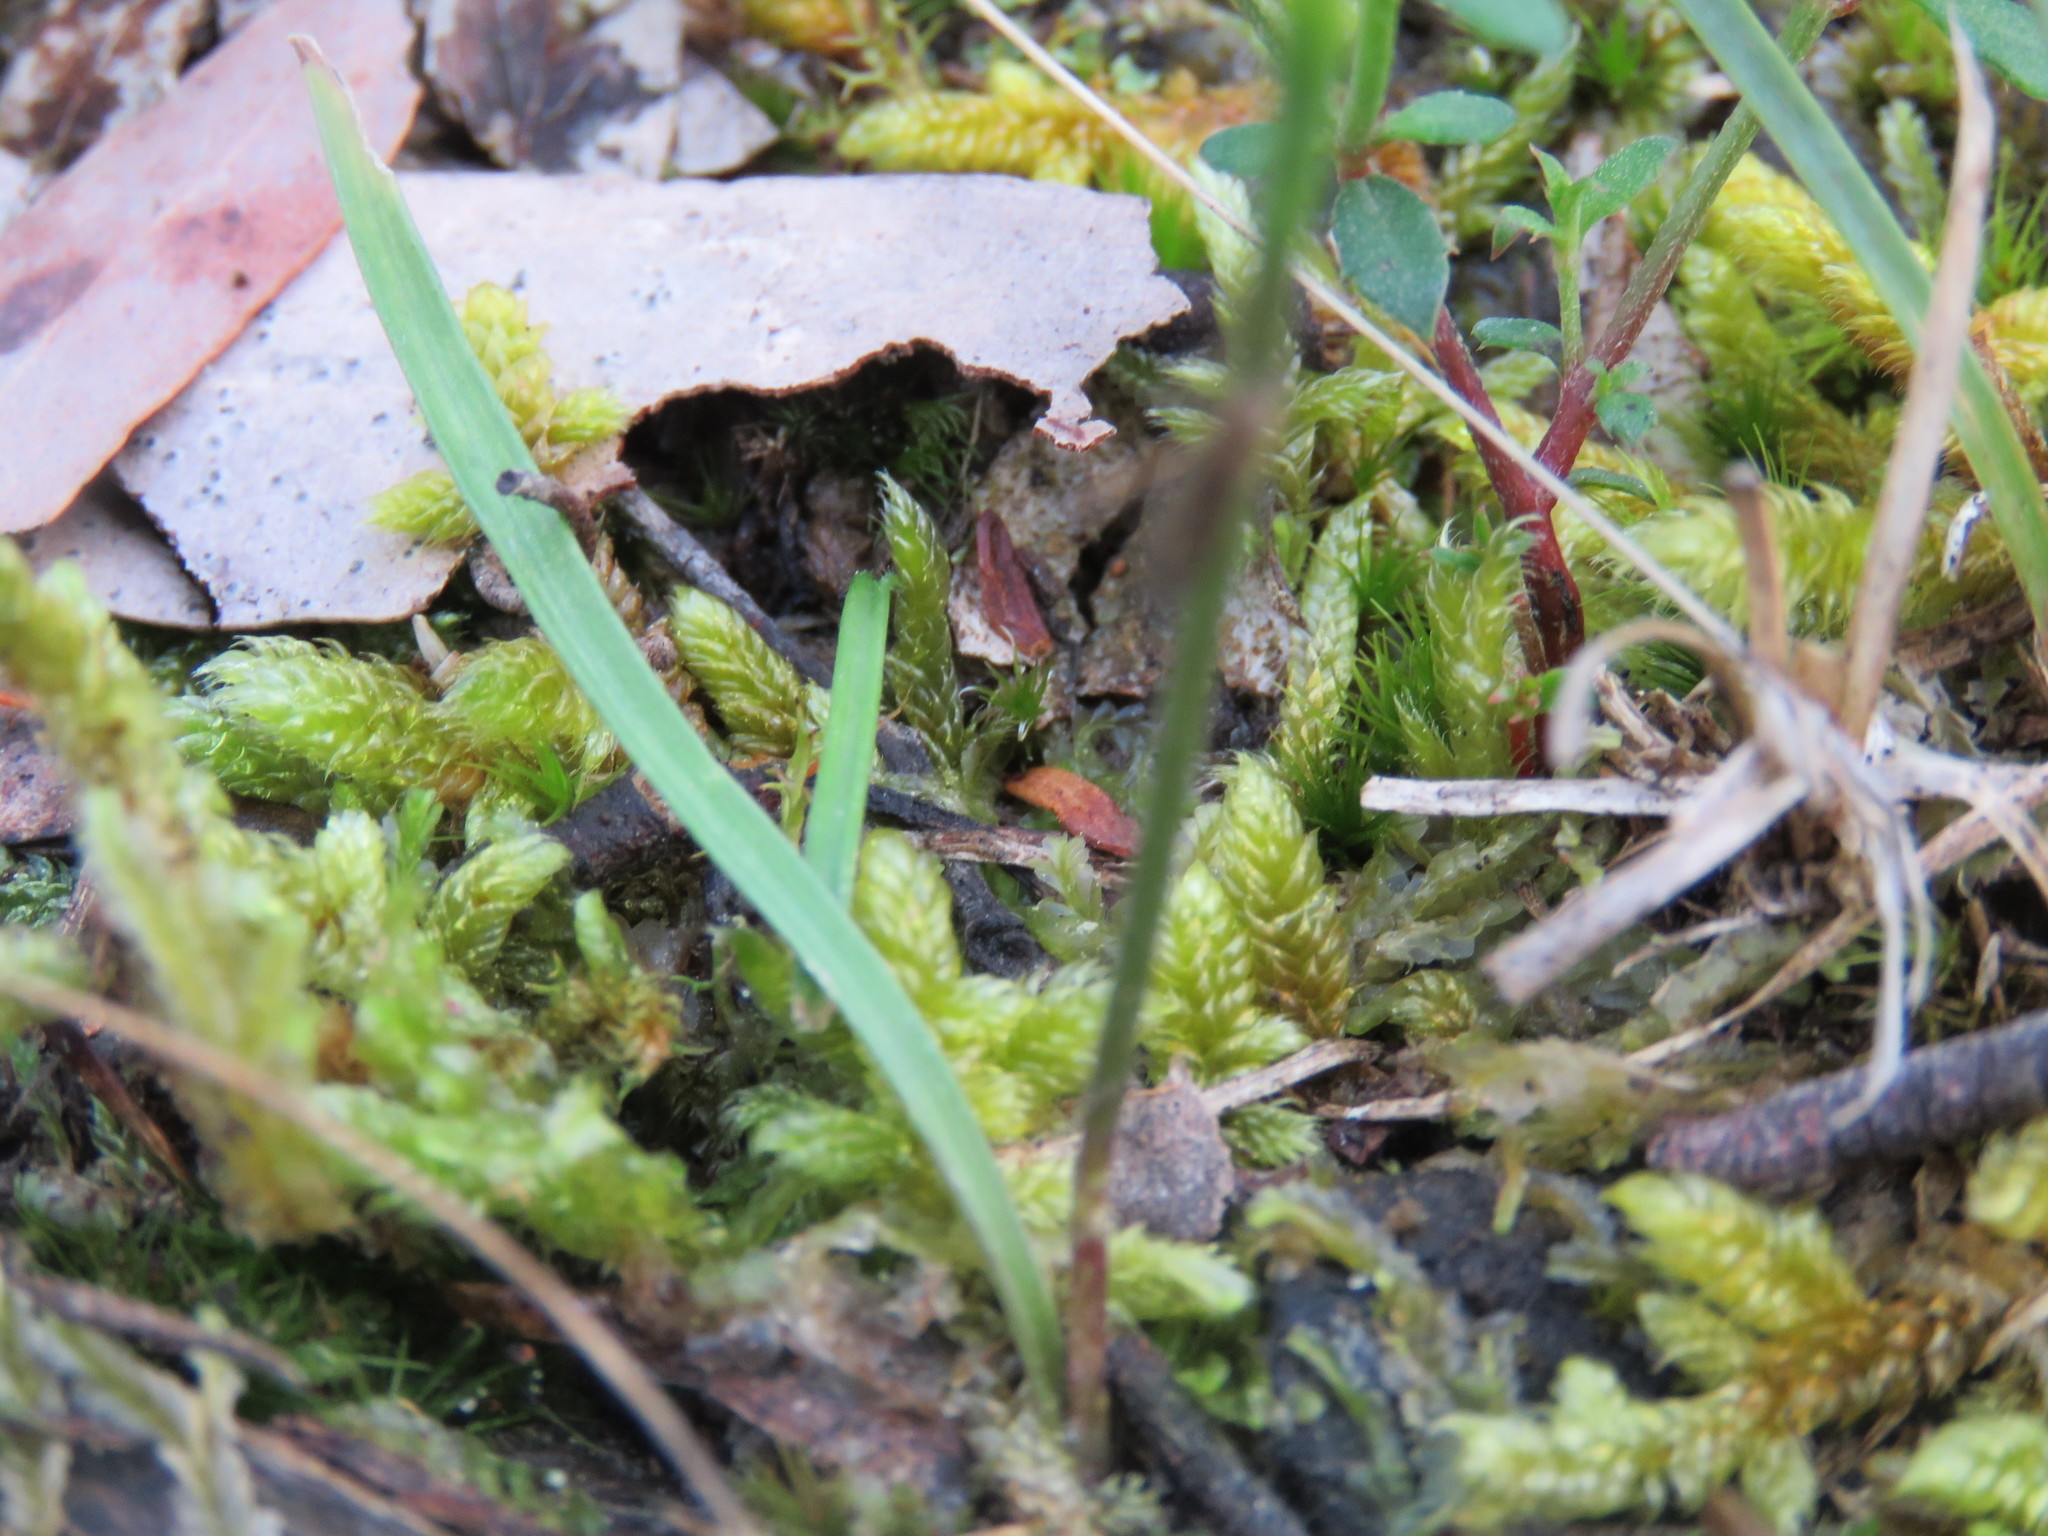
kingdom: Plantae
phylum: Tracheophyta
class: Liliopsida
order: Asparagales
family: Orchidaceae
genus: Caladenia
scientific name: Caladenia carnea
